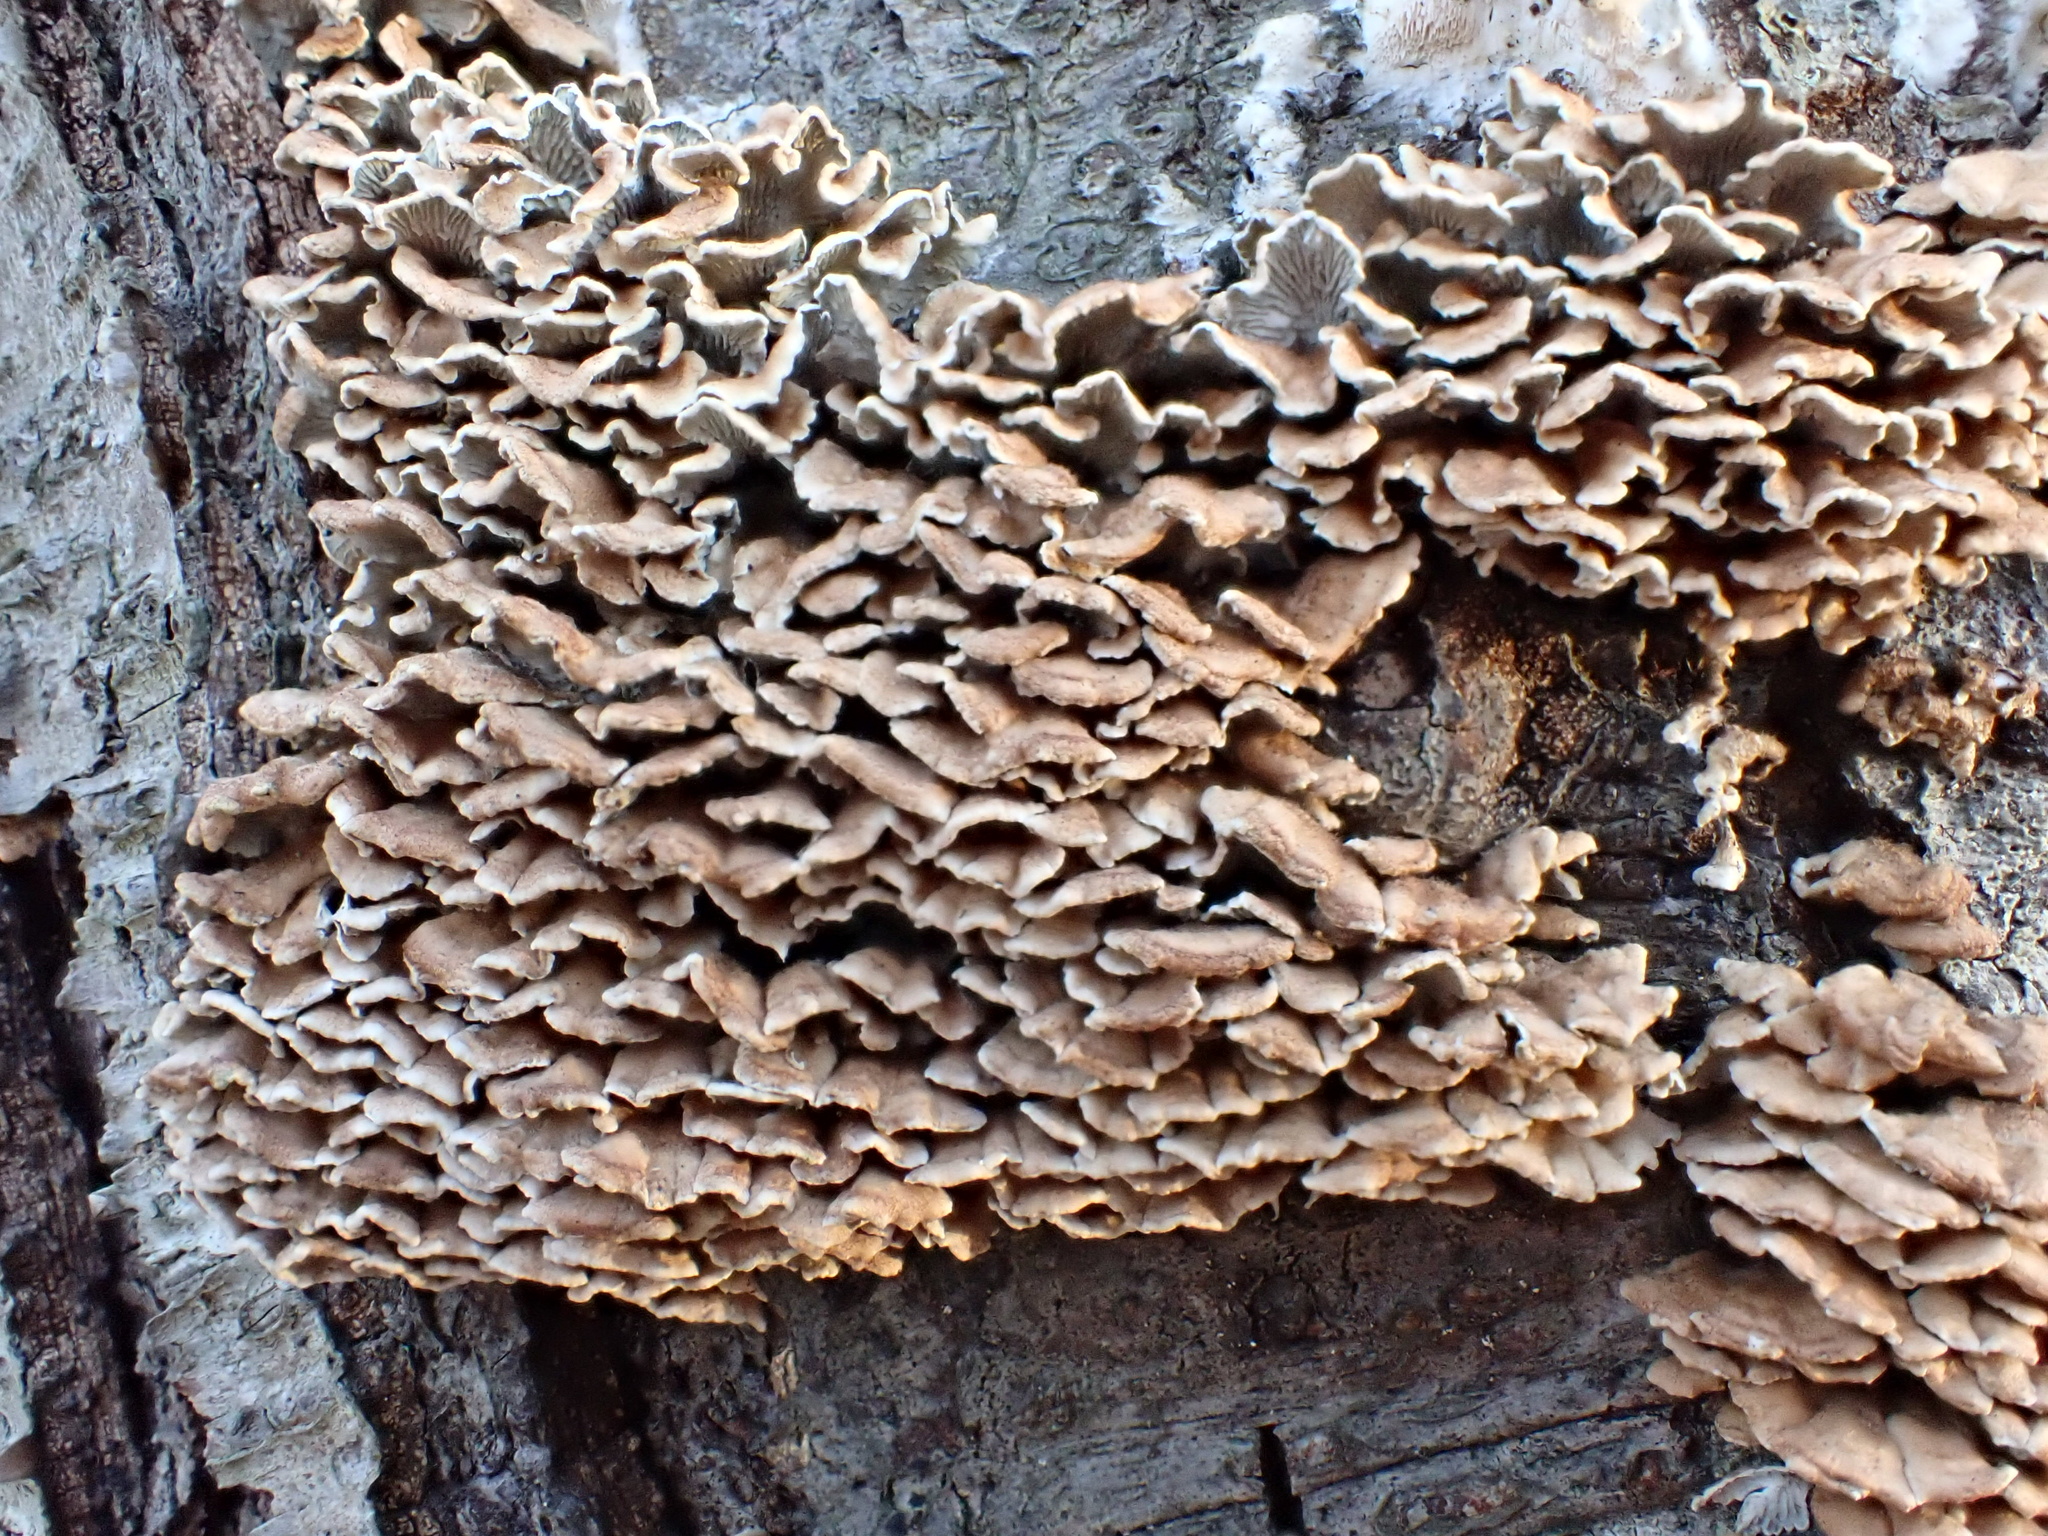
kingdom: Fungi
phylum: Basidiomycota
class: Agaricomycetes
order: Amylocorticiales
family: Amylocorticiaceae
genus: Plicaturopsis
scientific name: Plicaturopsis crispa
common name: Crimped gill
